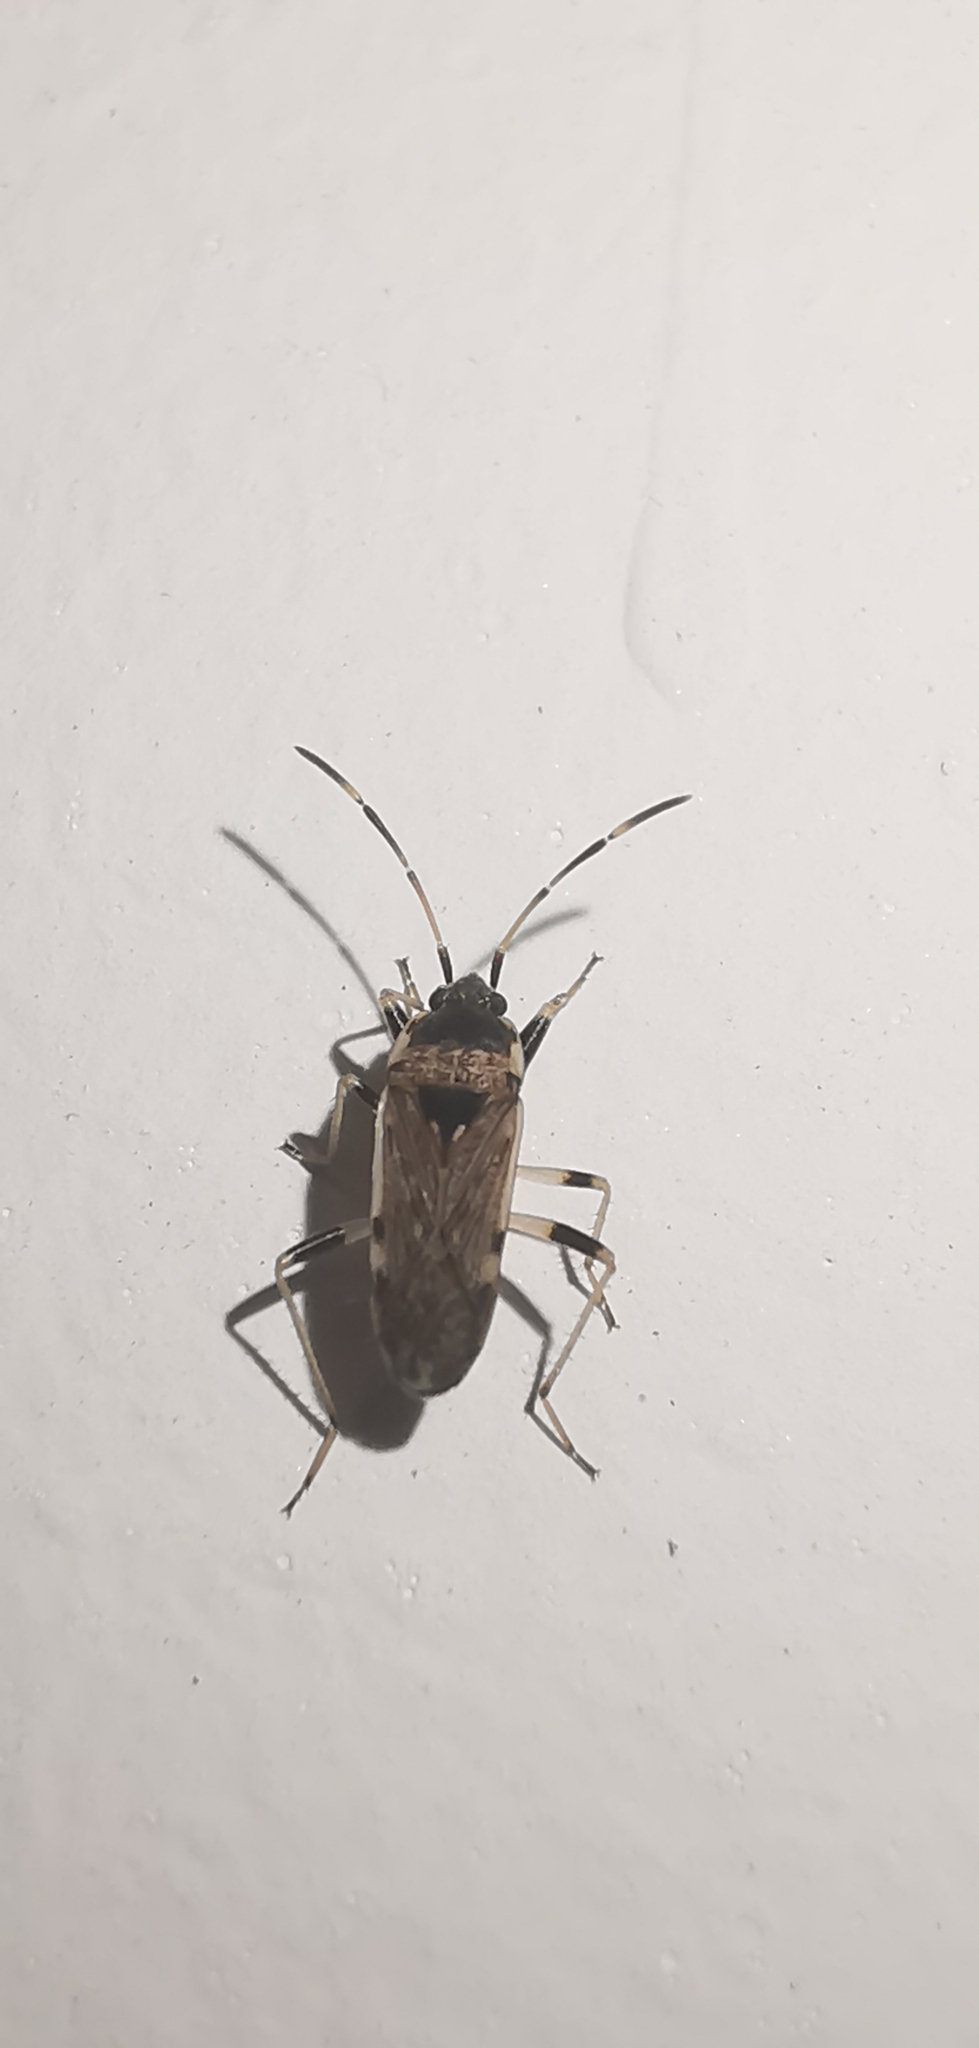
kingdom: Animalia
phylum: Arthropoda
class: Insecta
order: Hemiptera
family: Rhyparochromidae
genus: Elasmolomus
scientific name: Elasmolomus v-album
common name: Seed bug
